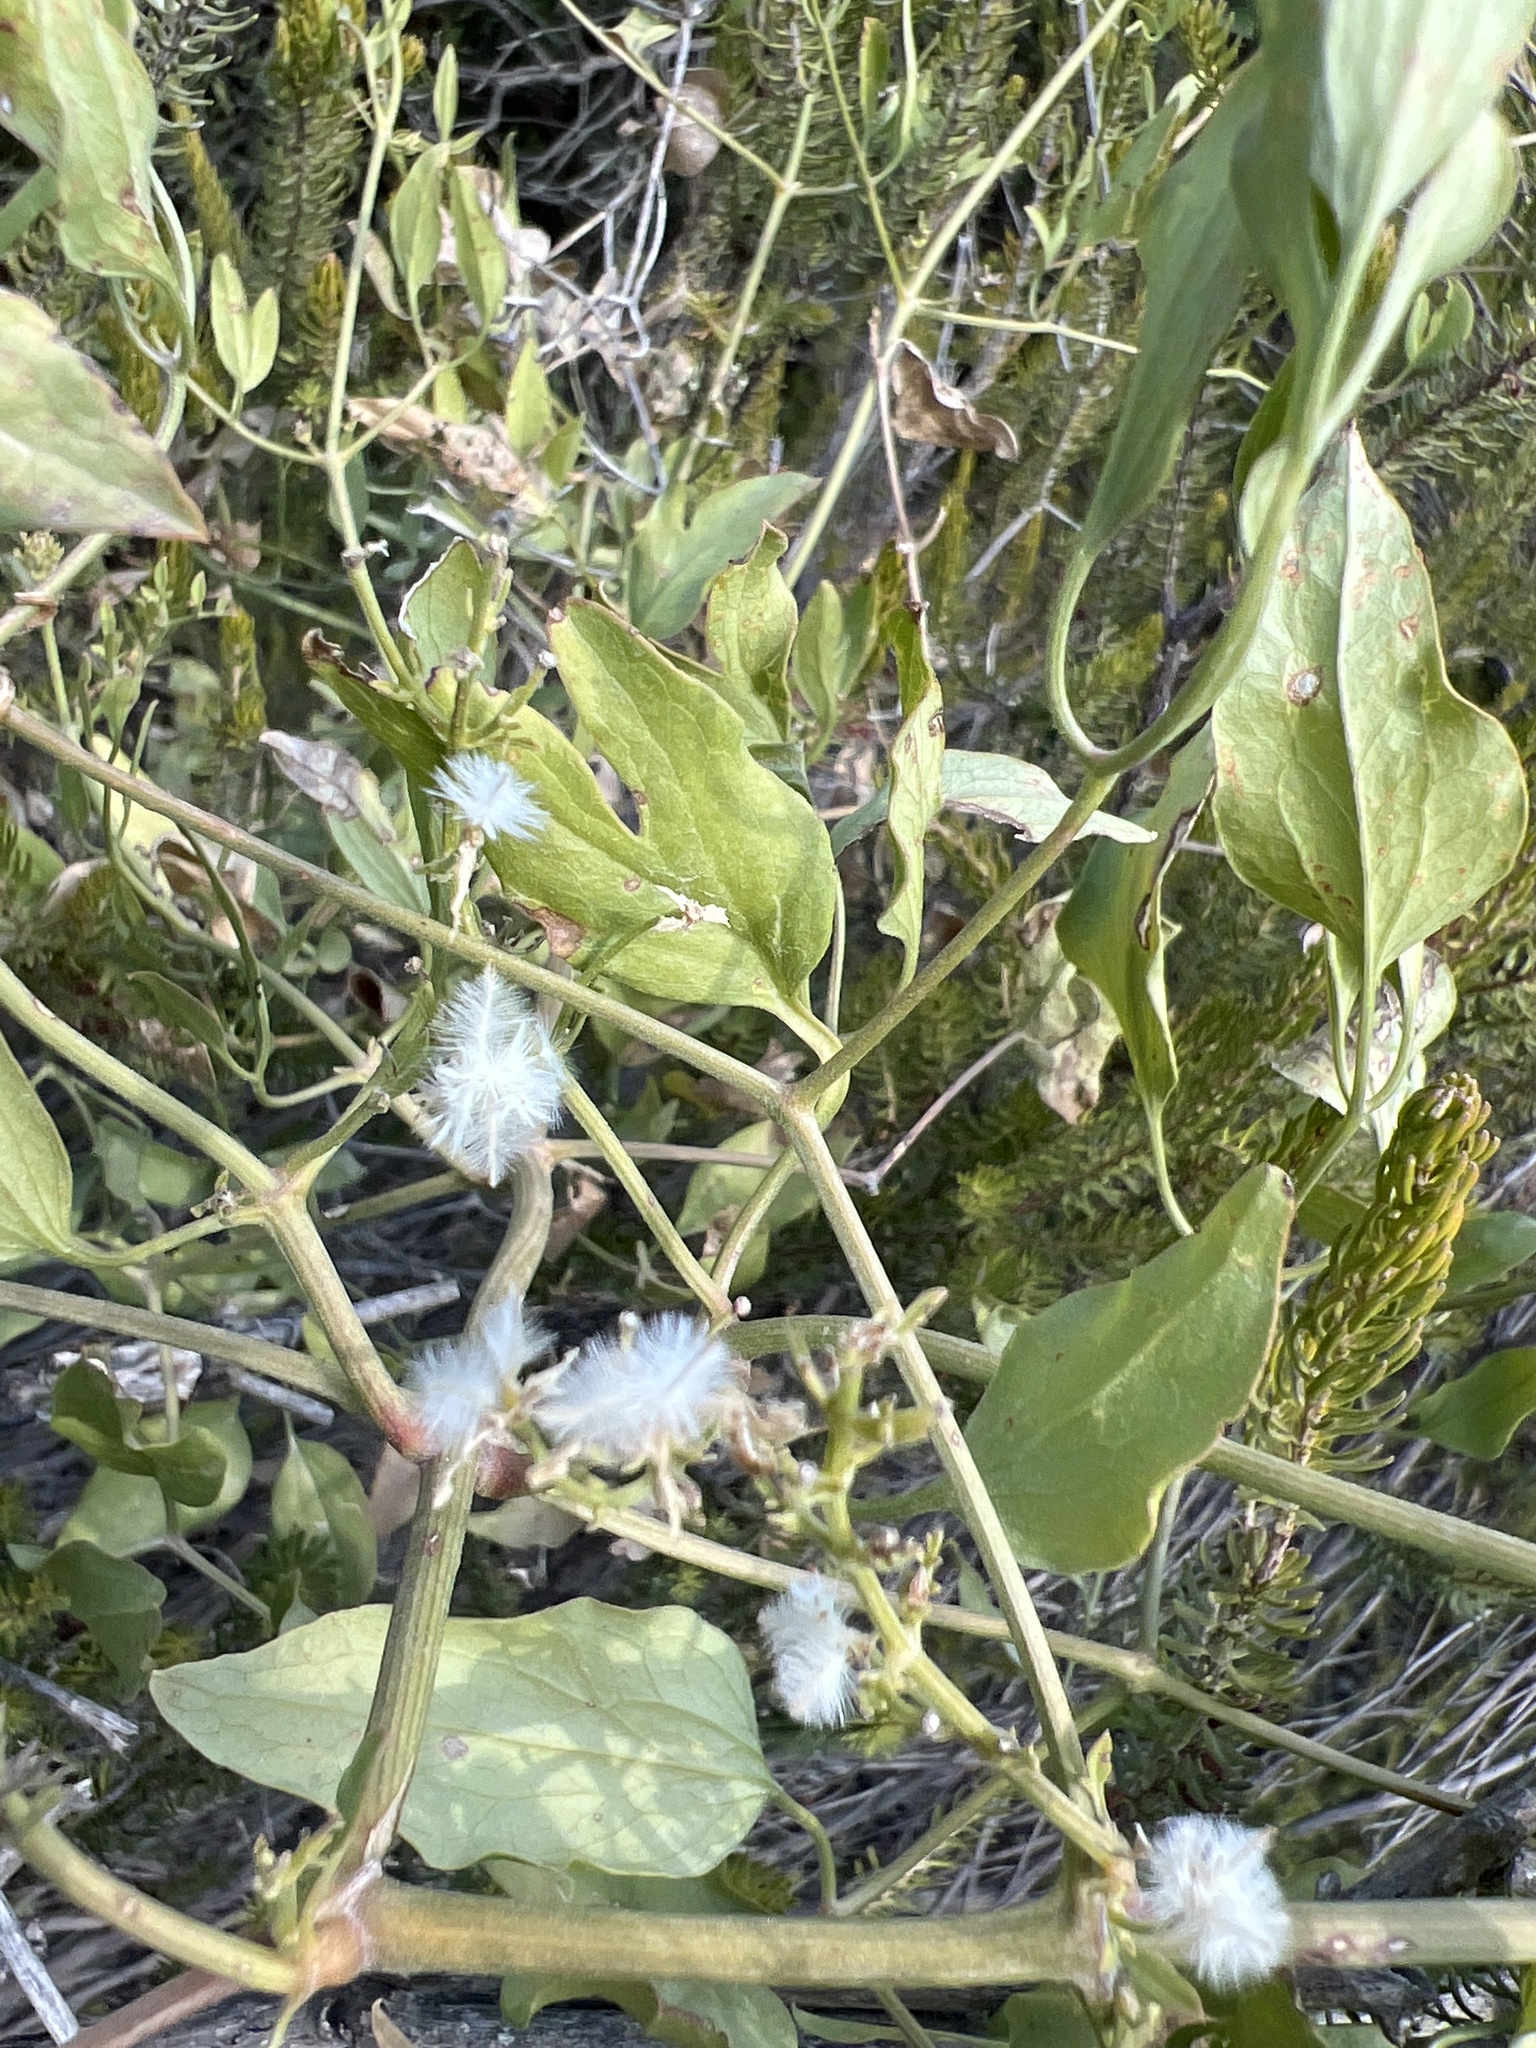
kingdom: Plantae
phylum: Tracheophyta
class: Magnoliopsida
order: Ranunculales
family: Ranunculaceae
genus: Clematis
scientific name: Clematis flammula
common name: Virgin's-bower
